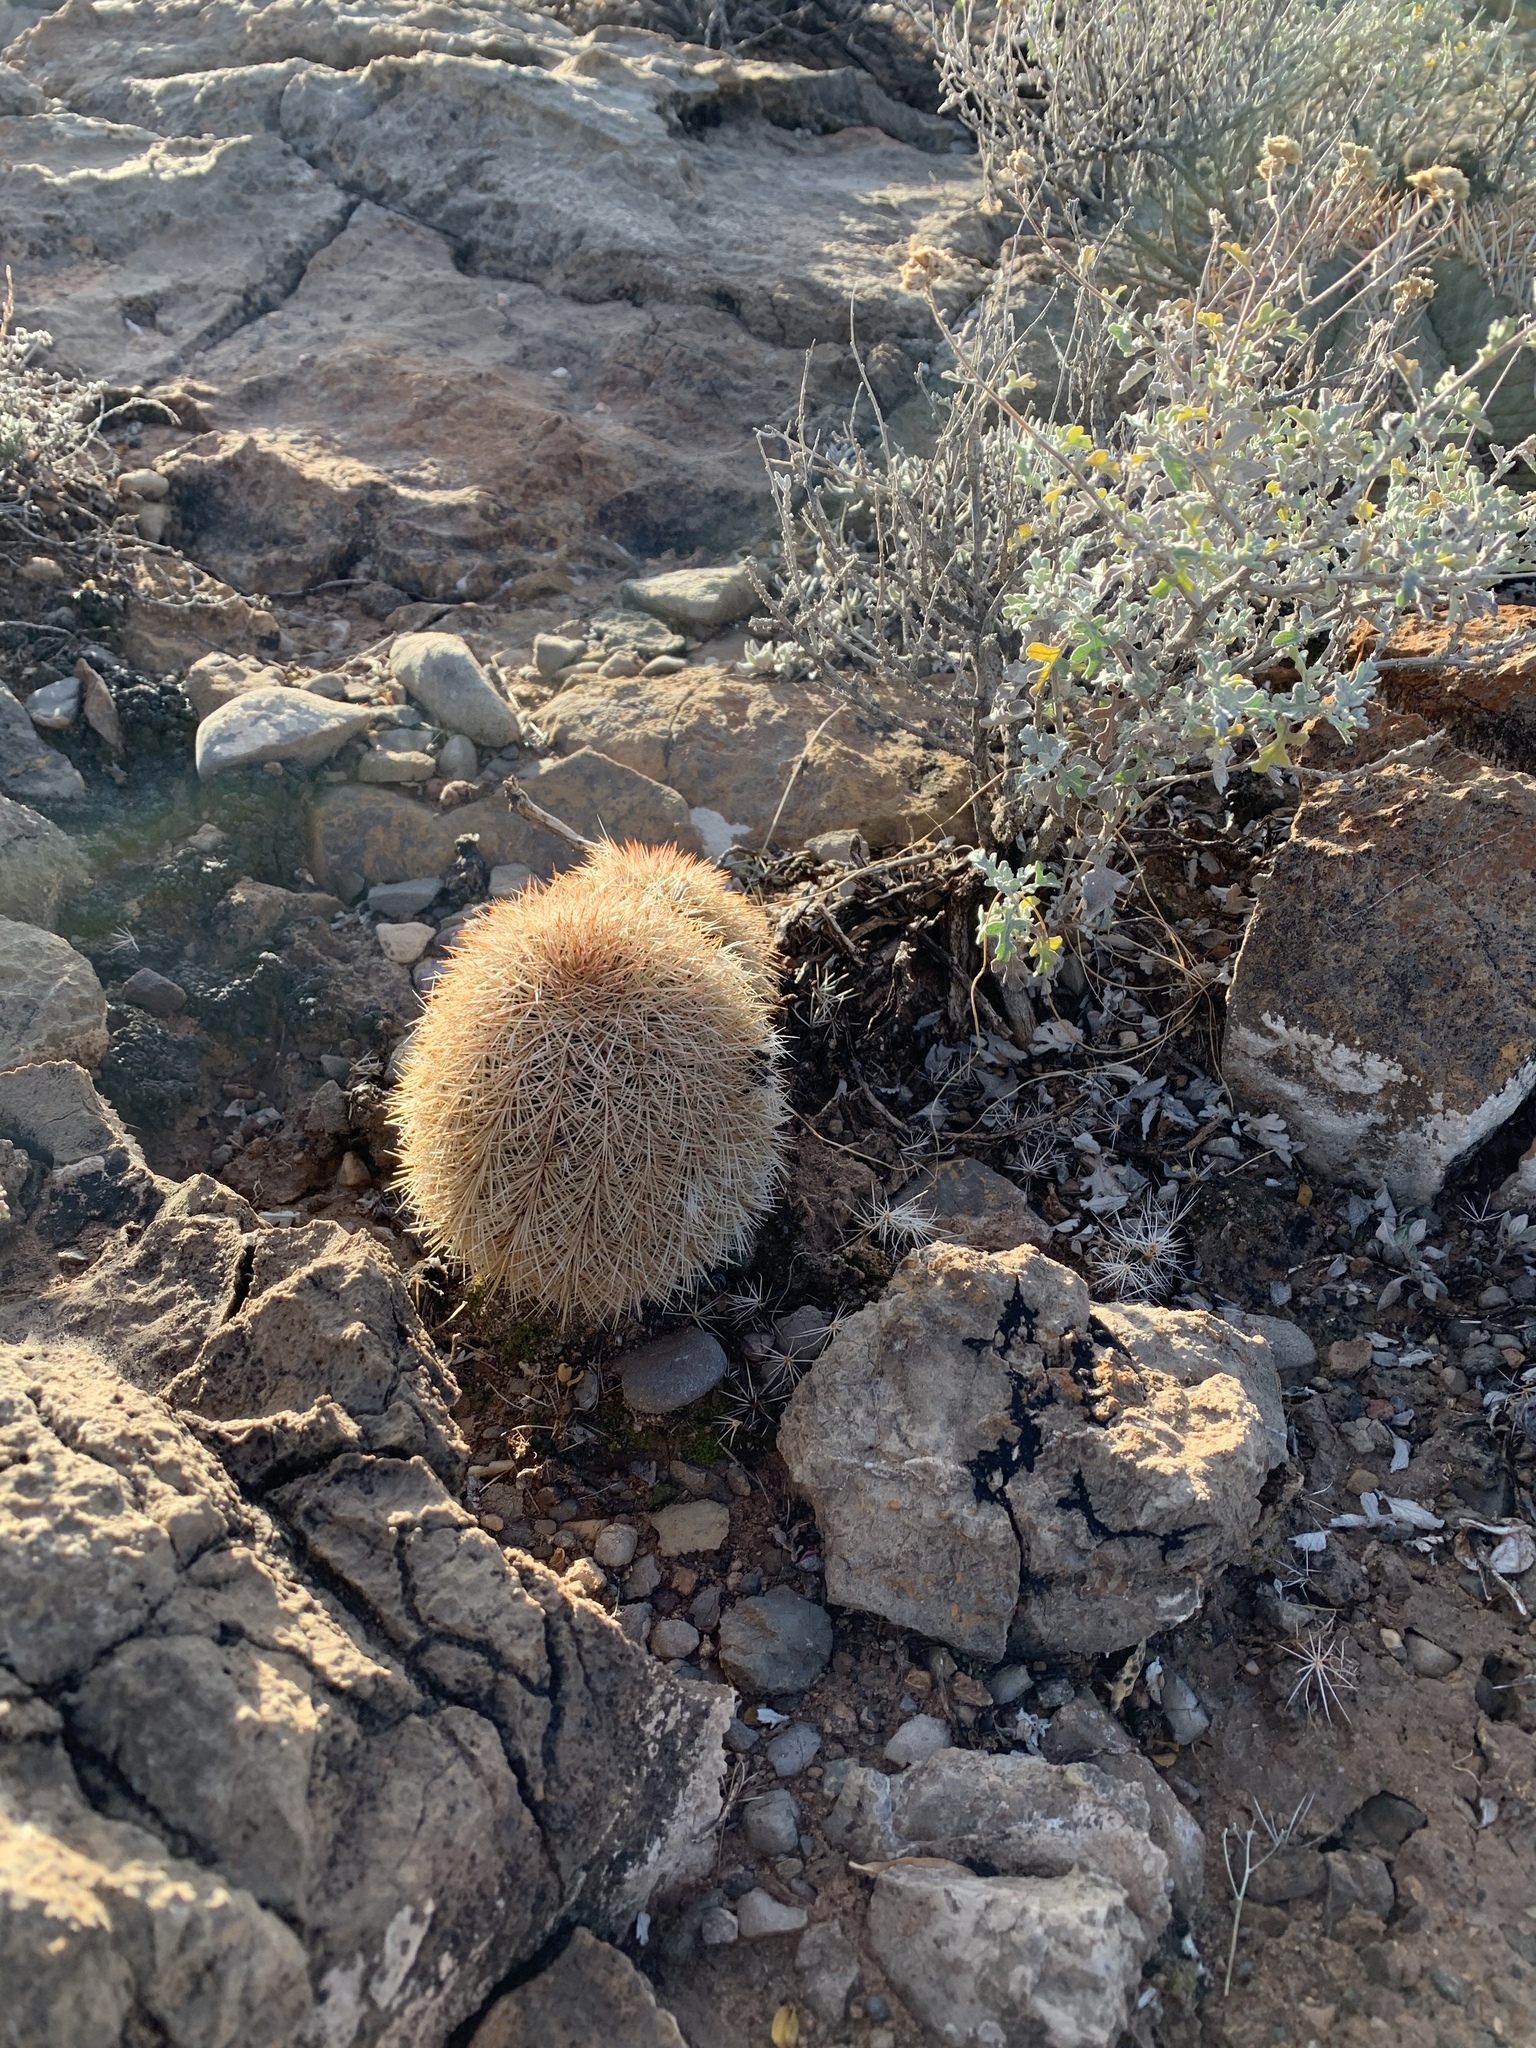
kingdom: Plantae
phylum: Tracheophyta
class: Magnoliopsida
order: Caryophyllales
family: Cactaceae
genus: Echinocereus
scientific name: Echinocereus dasyacanthus
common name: Spiny hedgehog cactus
